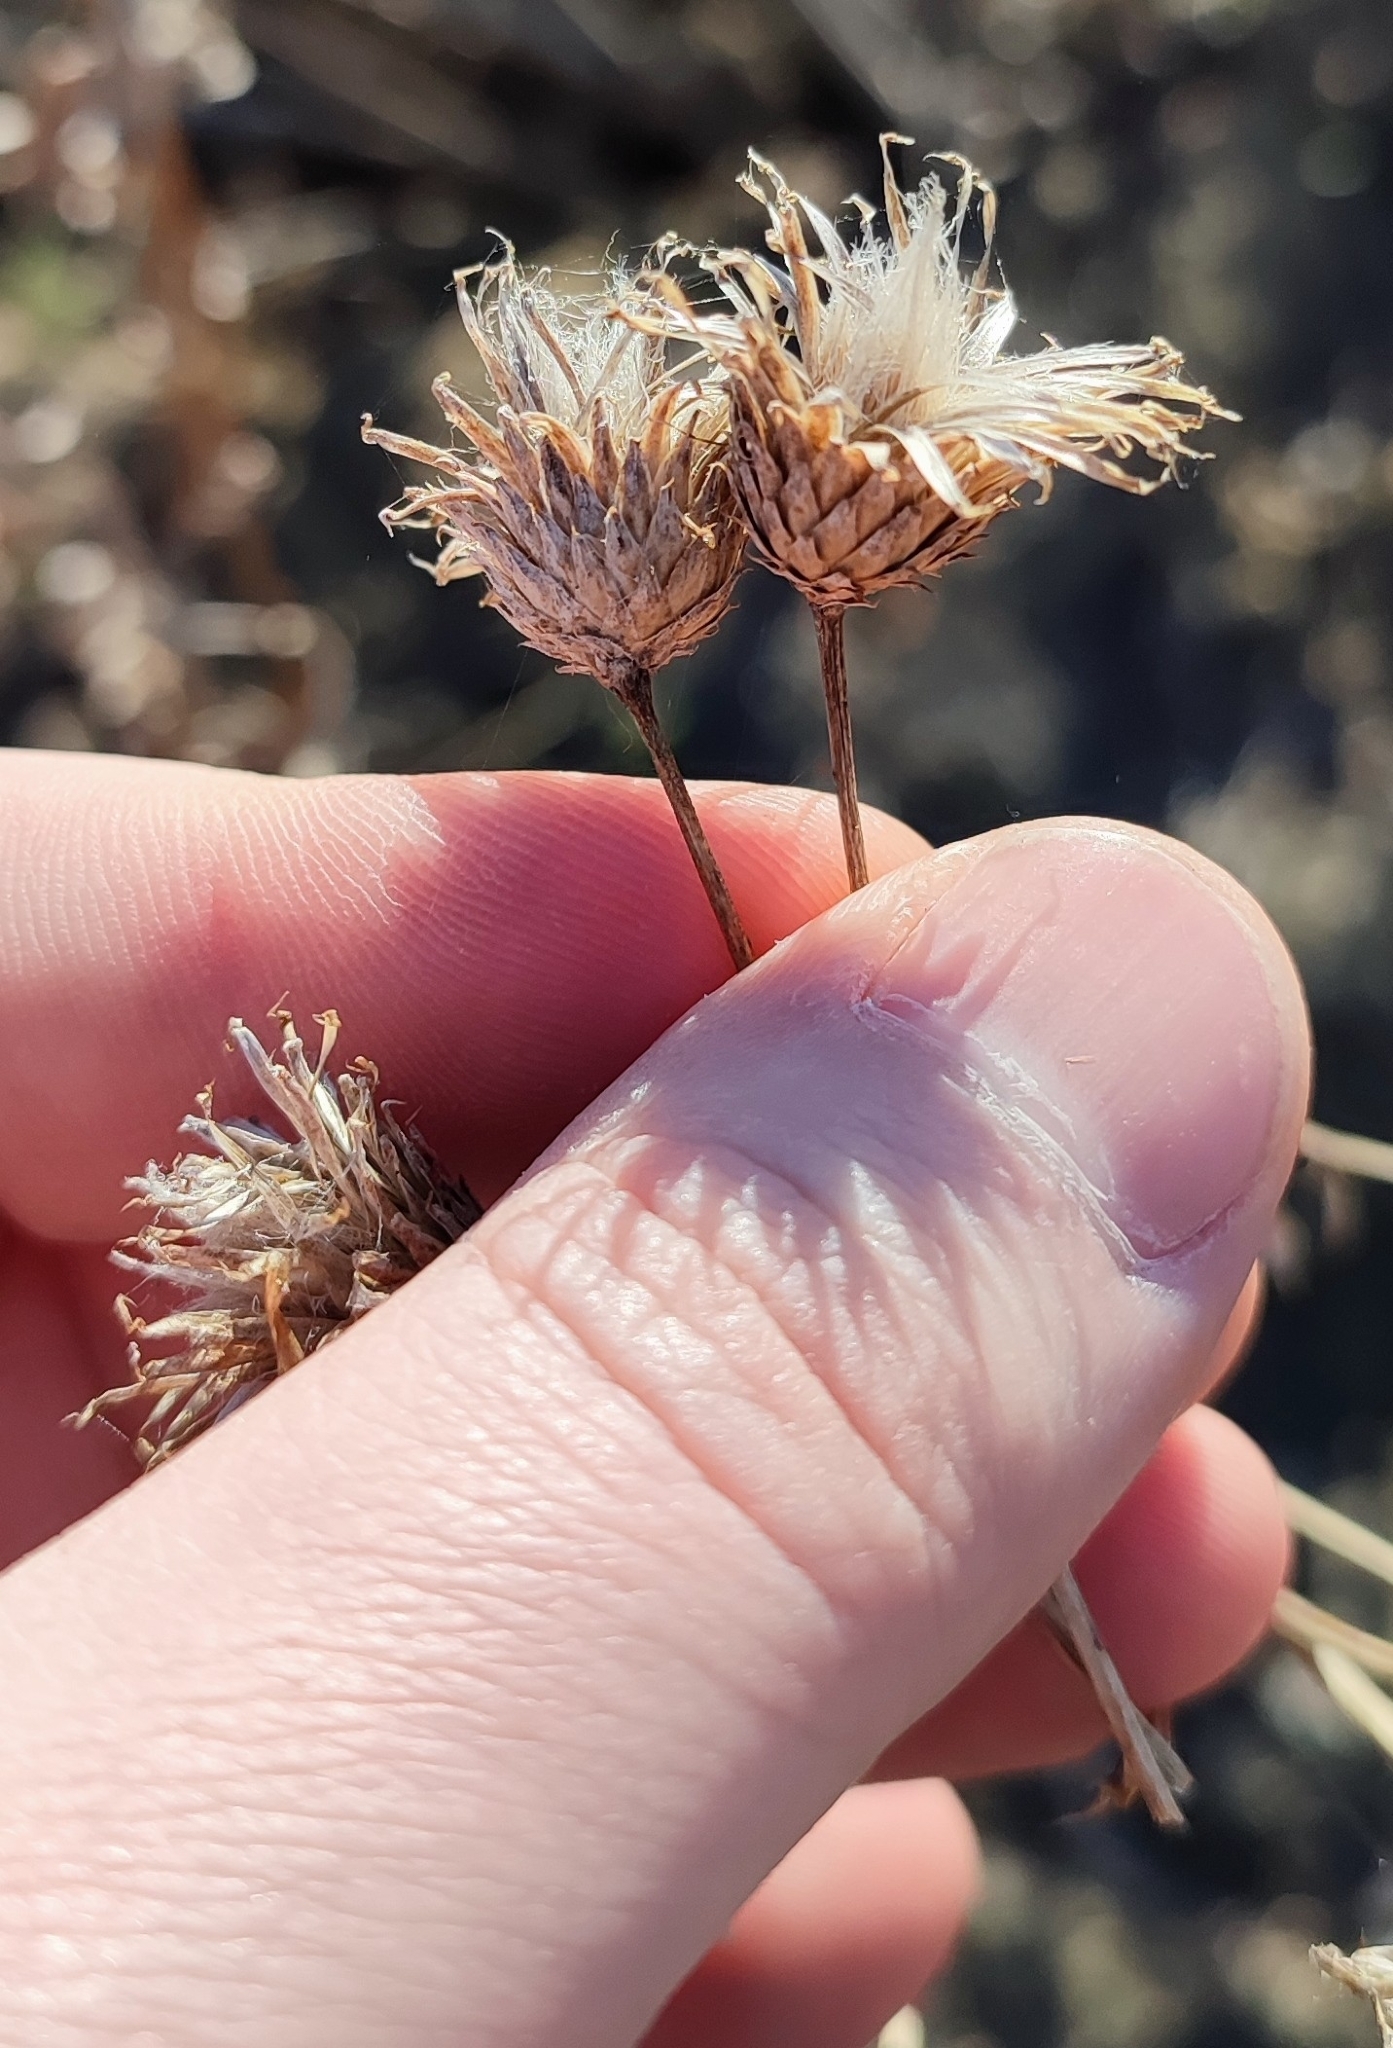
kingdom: Plantae
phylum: Tracheophyta
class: Magnoliopsida
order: Asterales
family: Asteraceae
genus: Cirsium
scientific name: Cirsium arvense
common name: Creeping thistle
